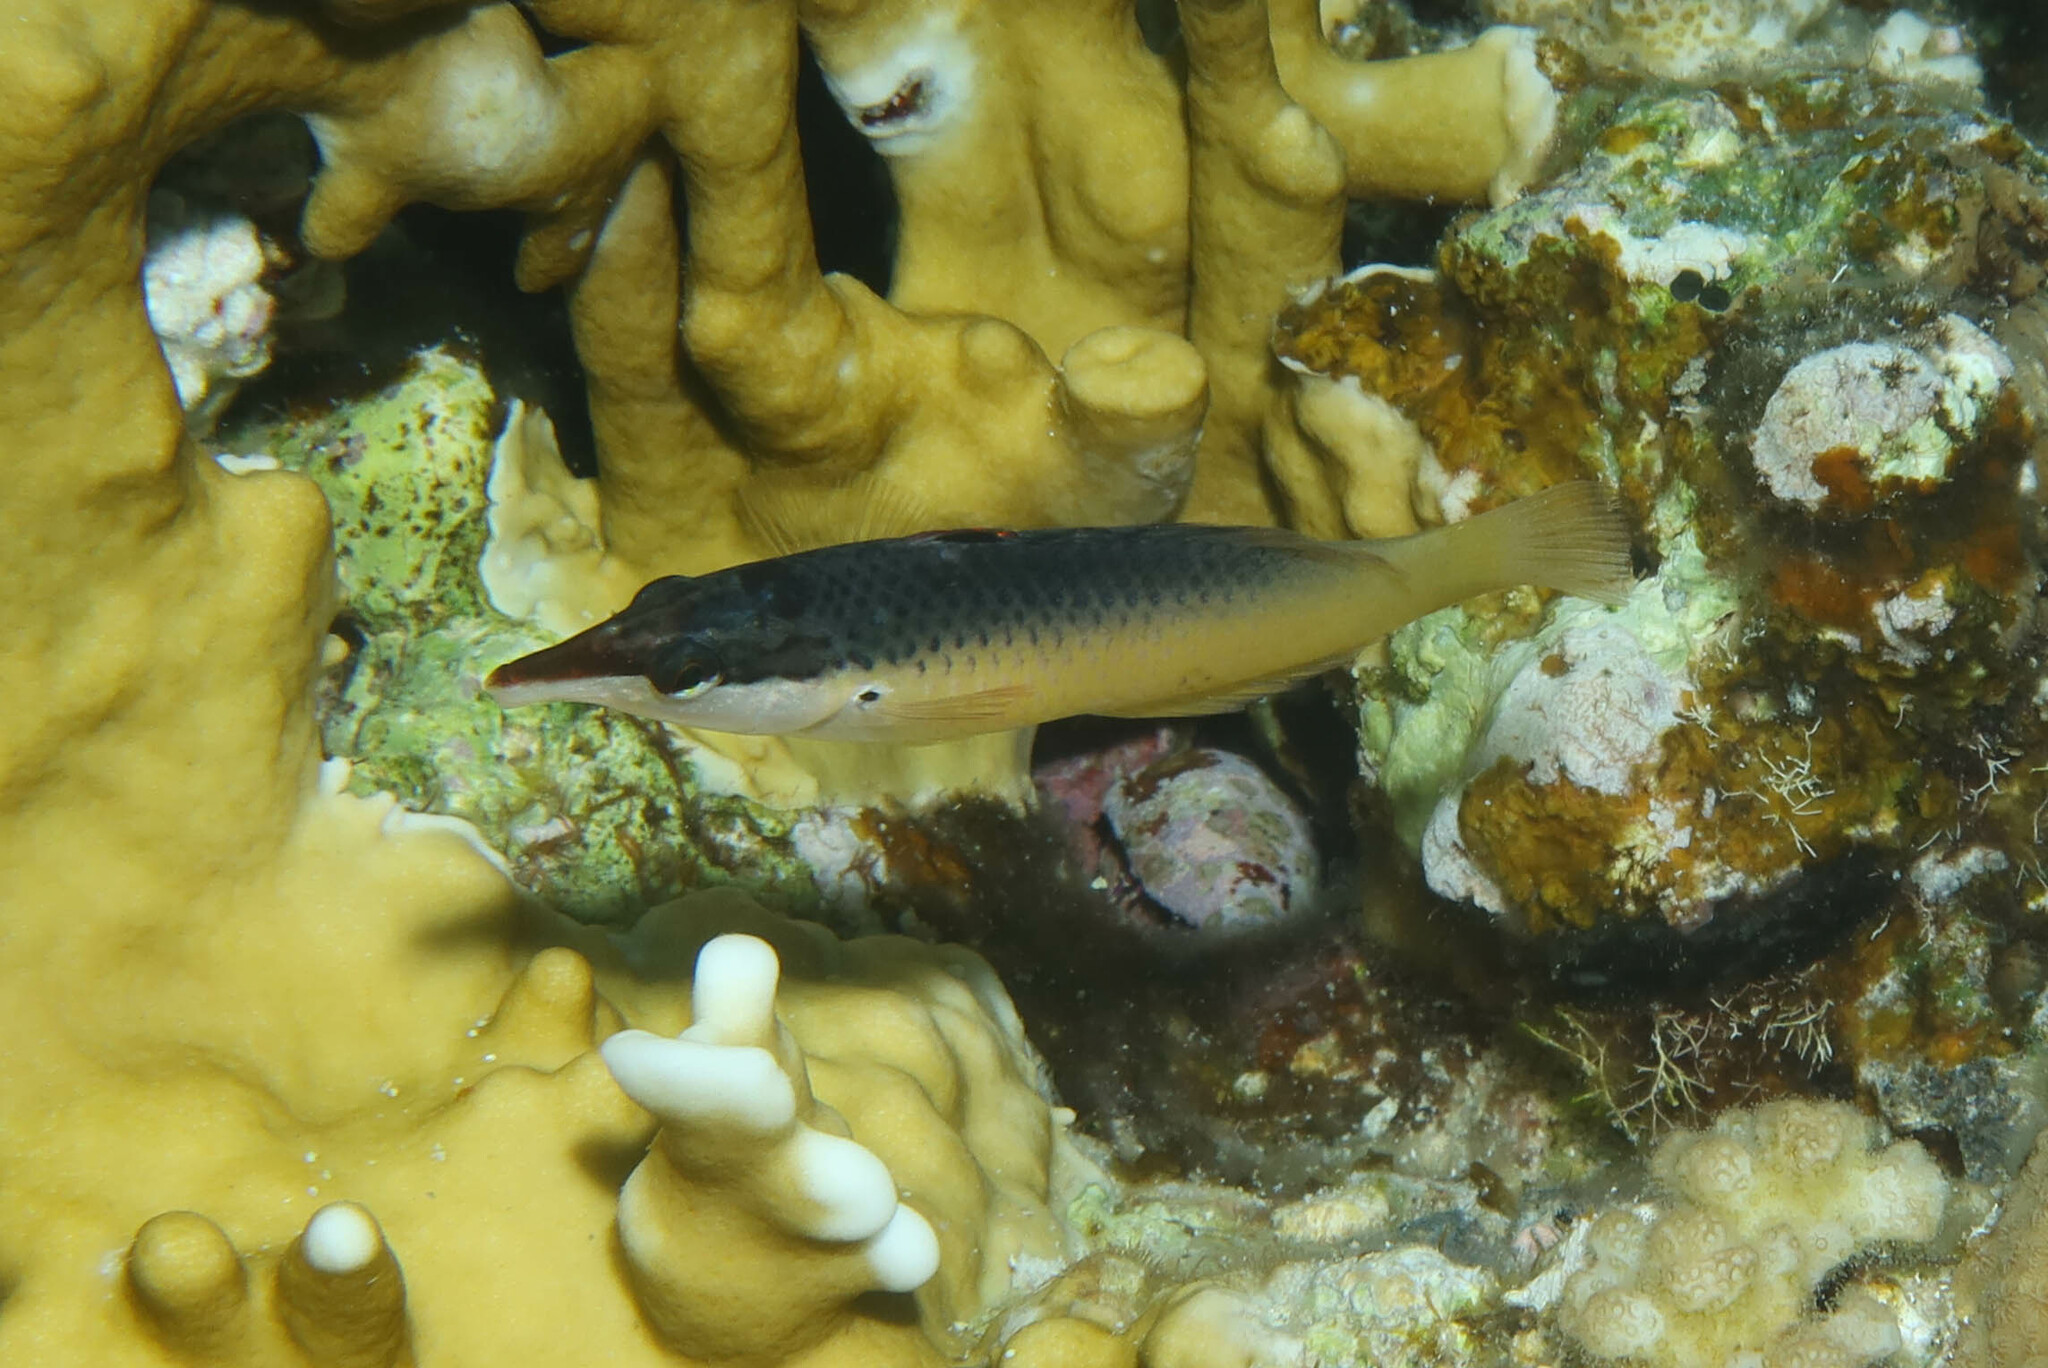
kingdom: Animalia
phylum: Chordata
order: Perciformes
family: Labridae
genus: Gomphosus
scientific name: Gomphosus klunzingeri
